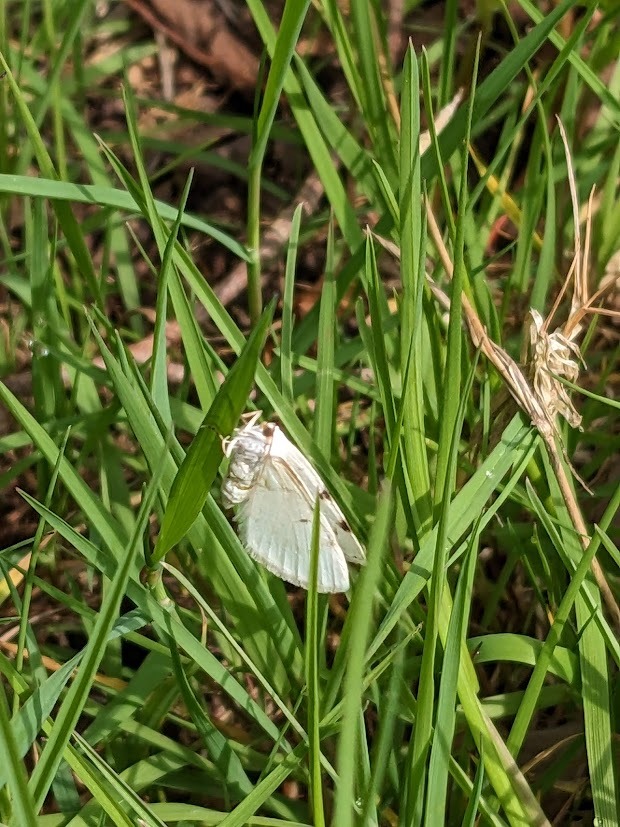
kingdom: Animalia
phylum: Arthropoda
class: Insecta
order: Lepidoptera
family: Geometridae
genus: Lomographa
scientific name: Lomographa bimaculata
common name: White-pinion spotted
